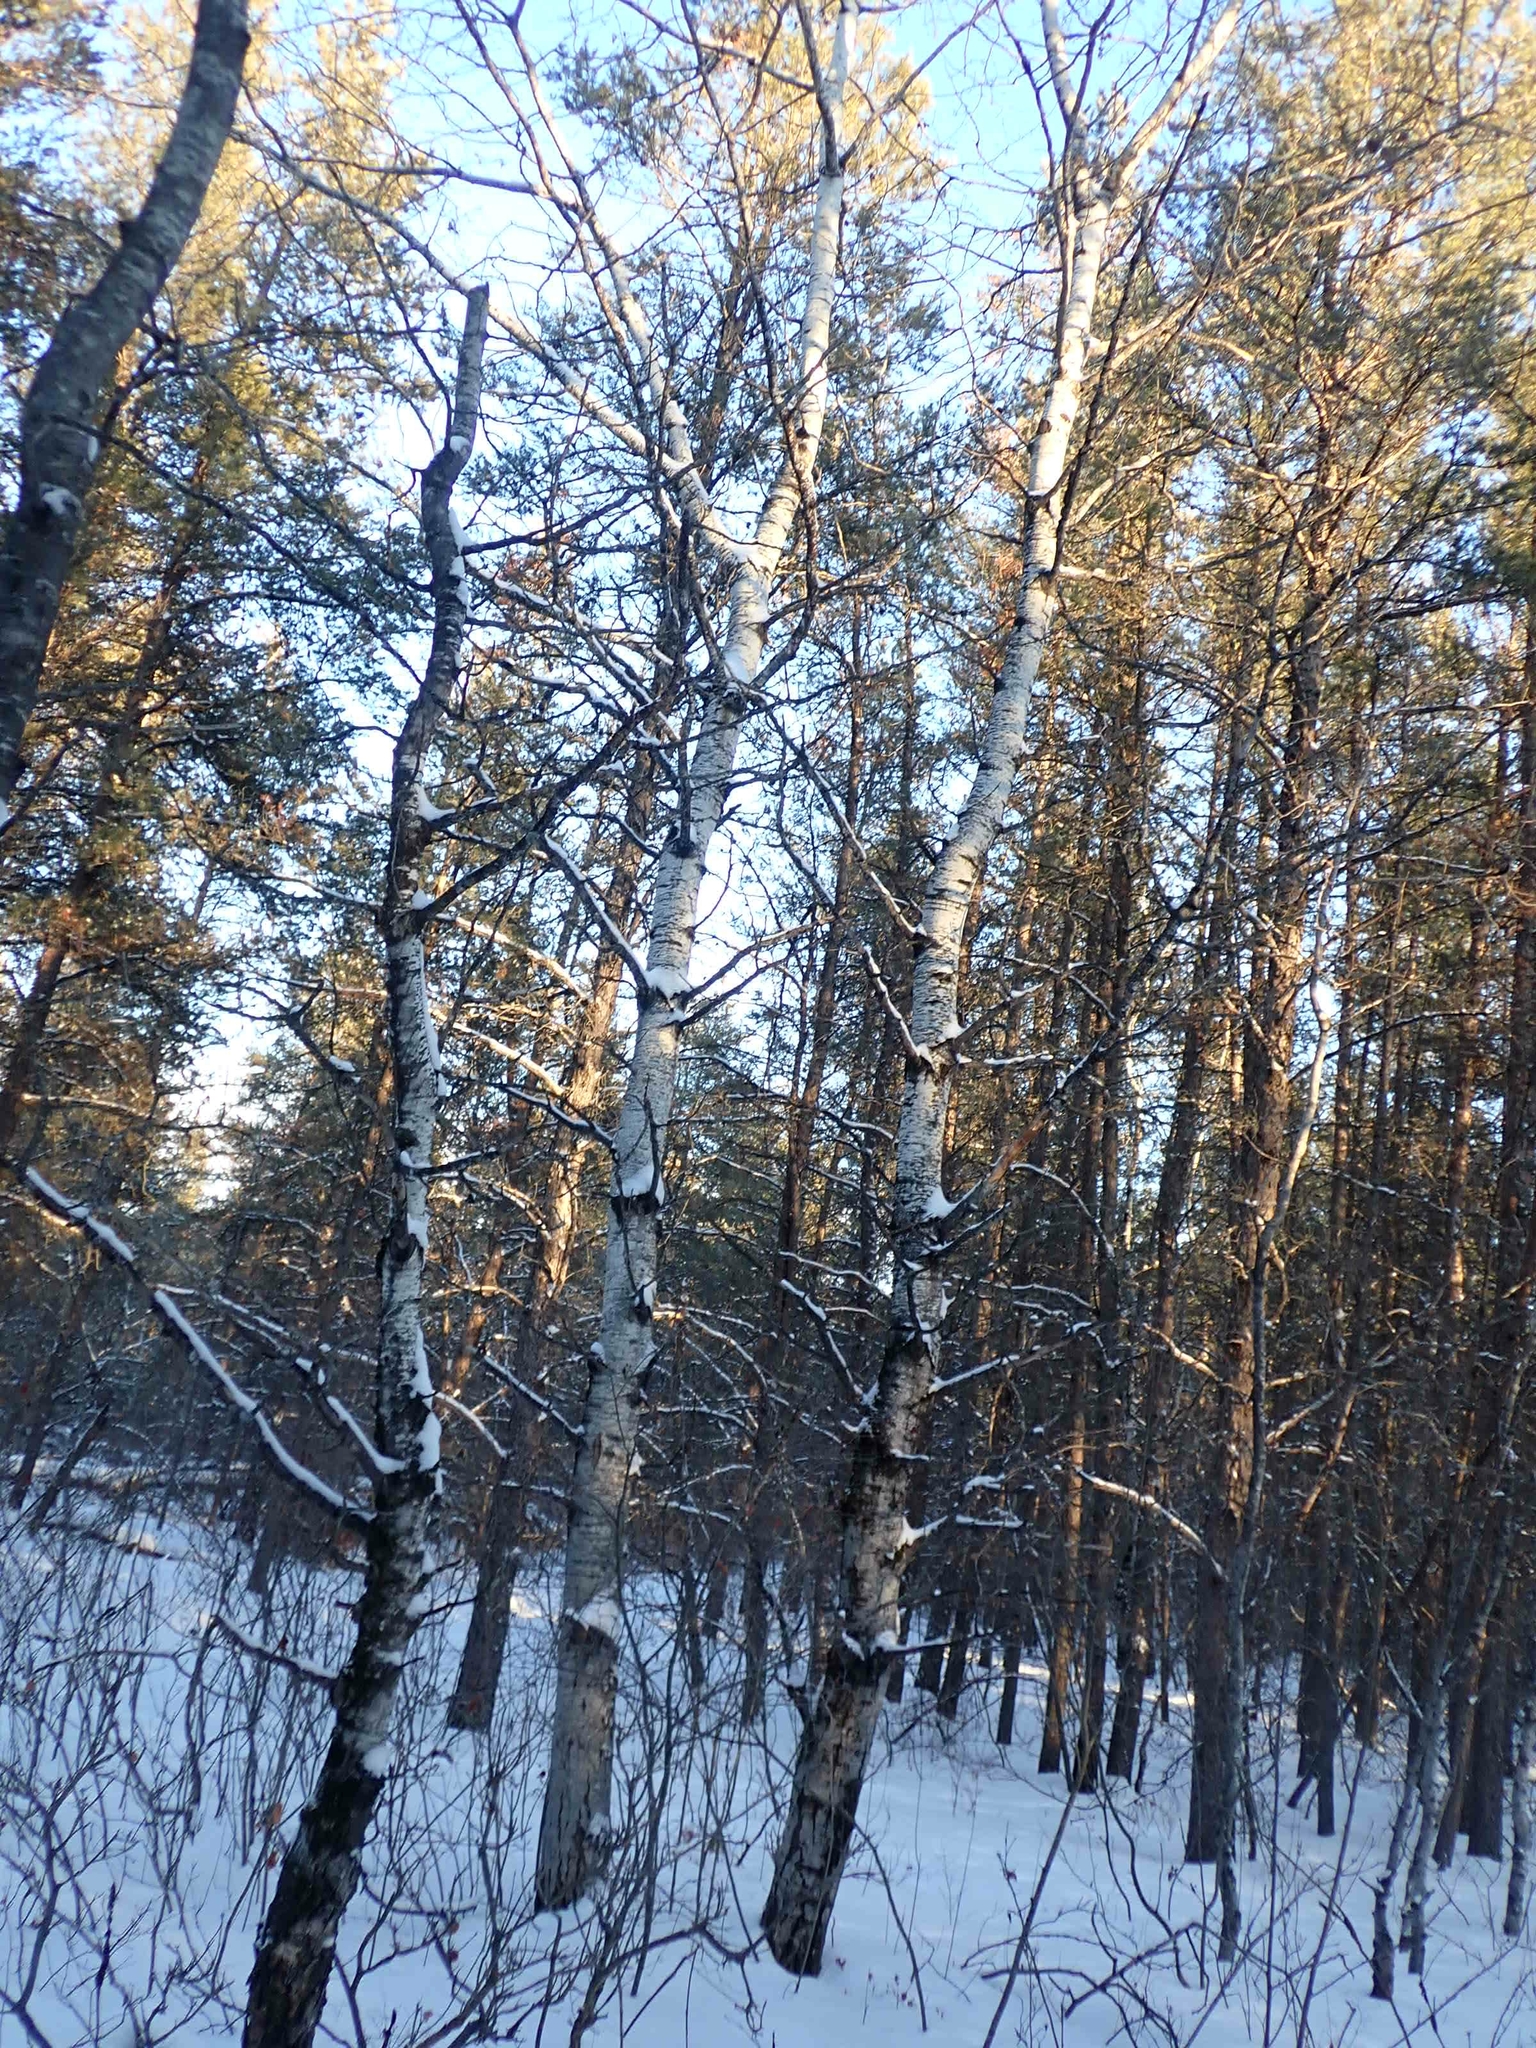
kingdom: Plantae
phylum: Tracheophyta
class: Magnoliopsida
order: Malpighiales
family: Salicaceae
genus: Populus
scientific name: Populus tremuloides
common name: Quaking aspen
